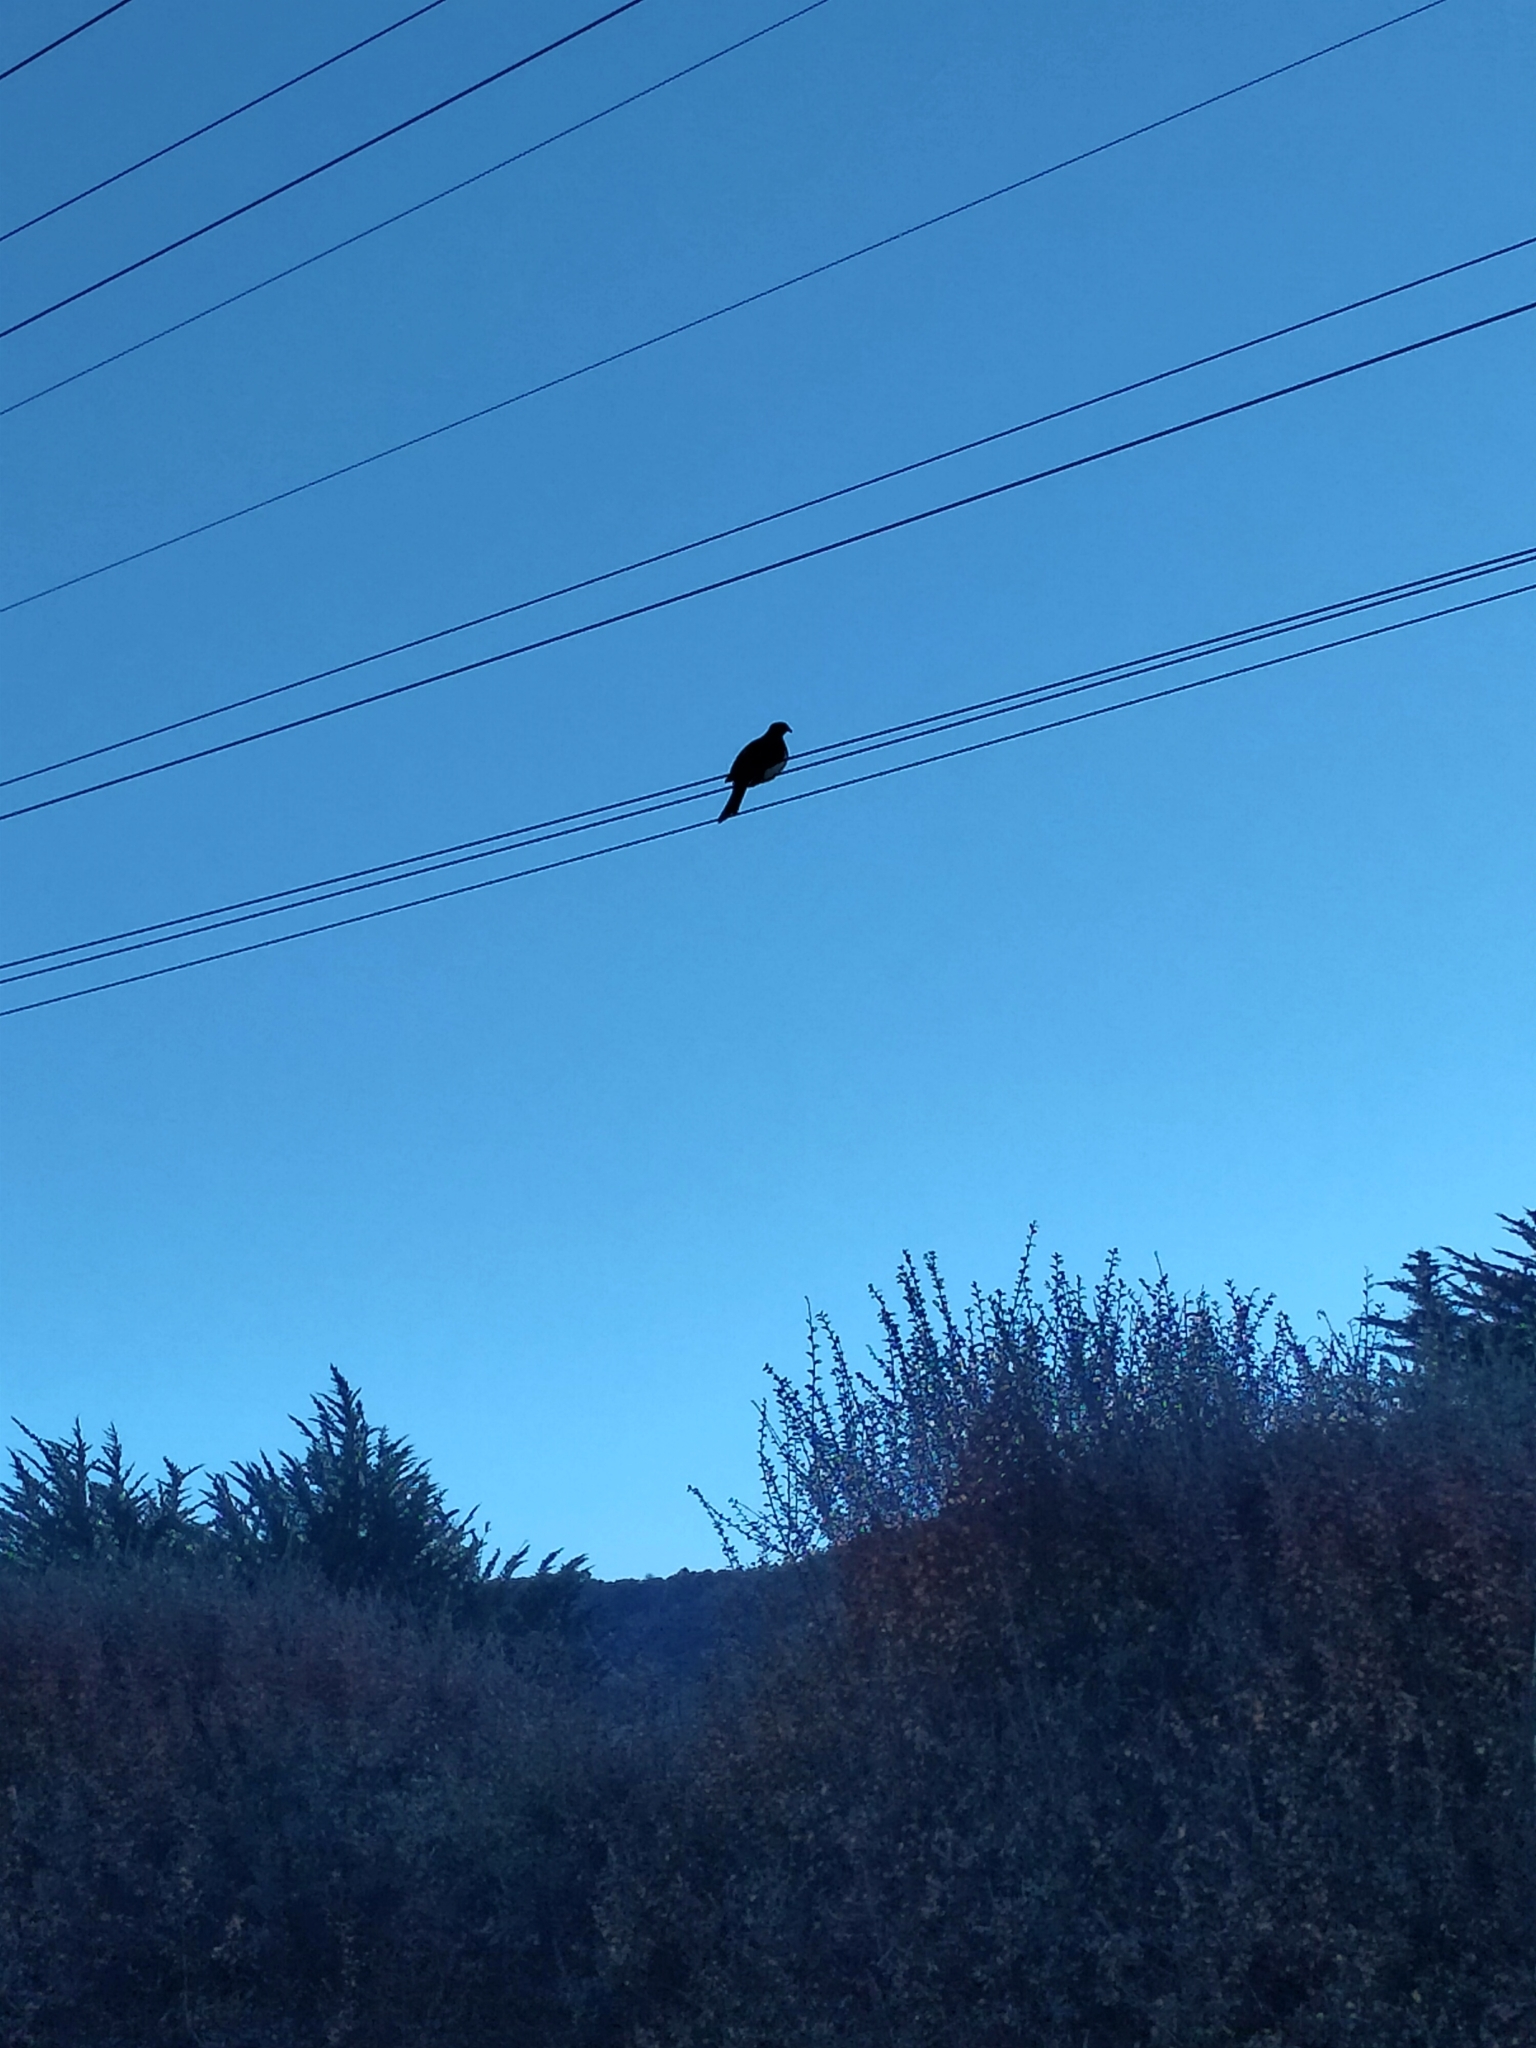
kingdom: Animalia
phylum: Chordata
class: Aves
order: Columbiformes
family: Columbidae
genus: Hemiphaga
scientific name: Hemiphaga novaeseelandiae
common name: New zealand pigeon
